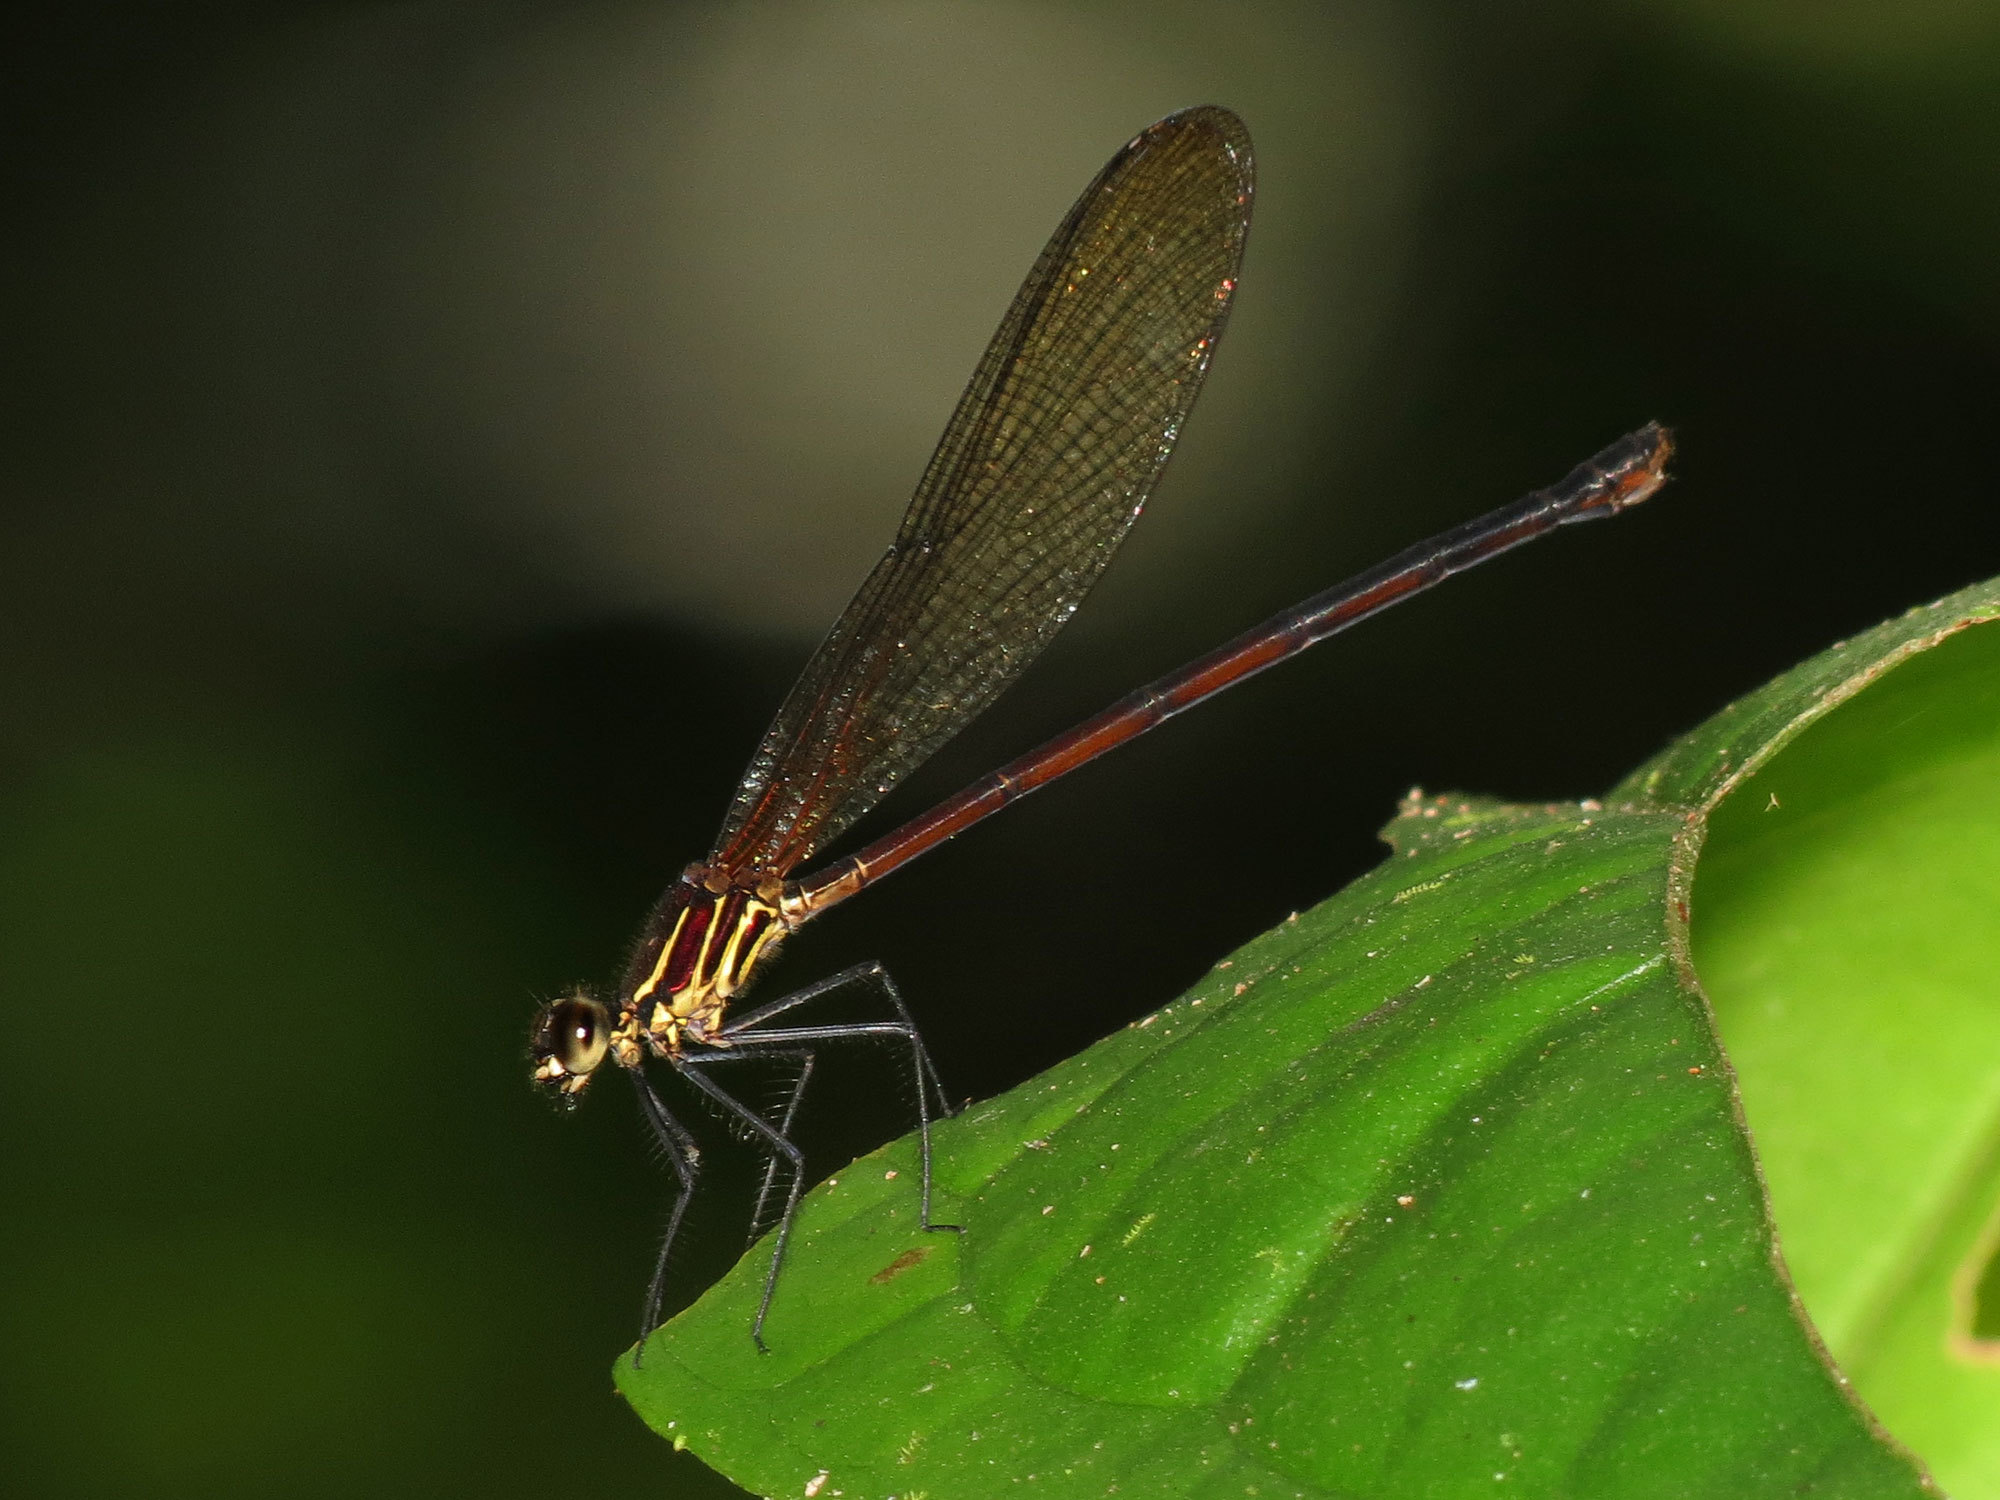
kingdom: Animalia
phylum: Arthropoda
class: Insecta
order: Odonata
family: Calopterygidae
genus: Hetaerina
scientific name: Hetaerina miniata
